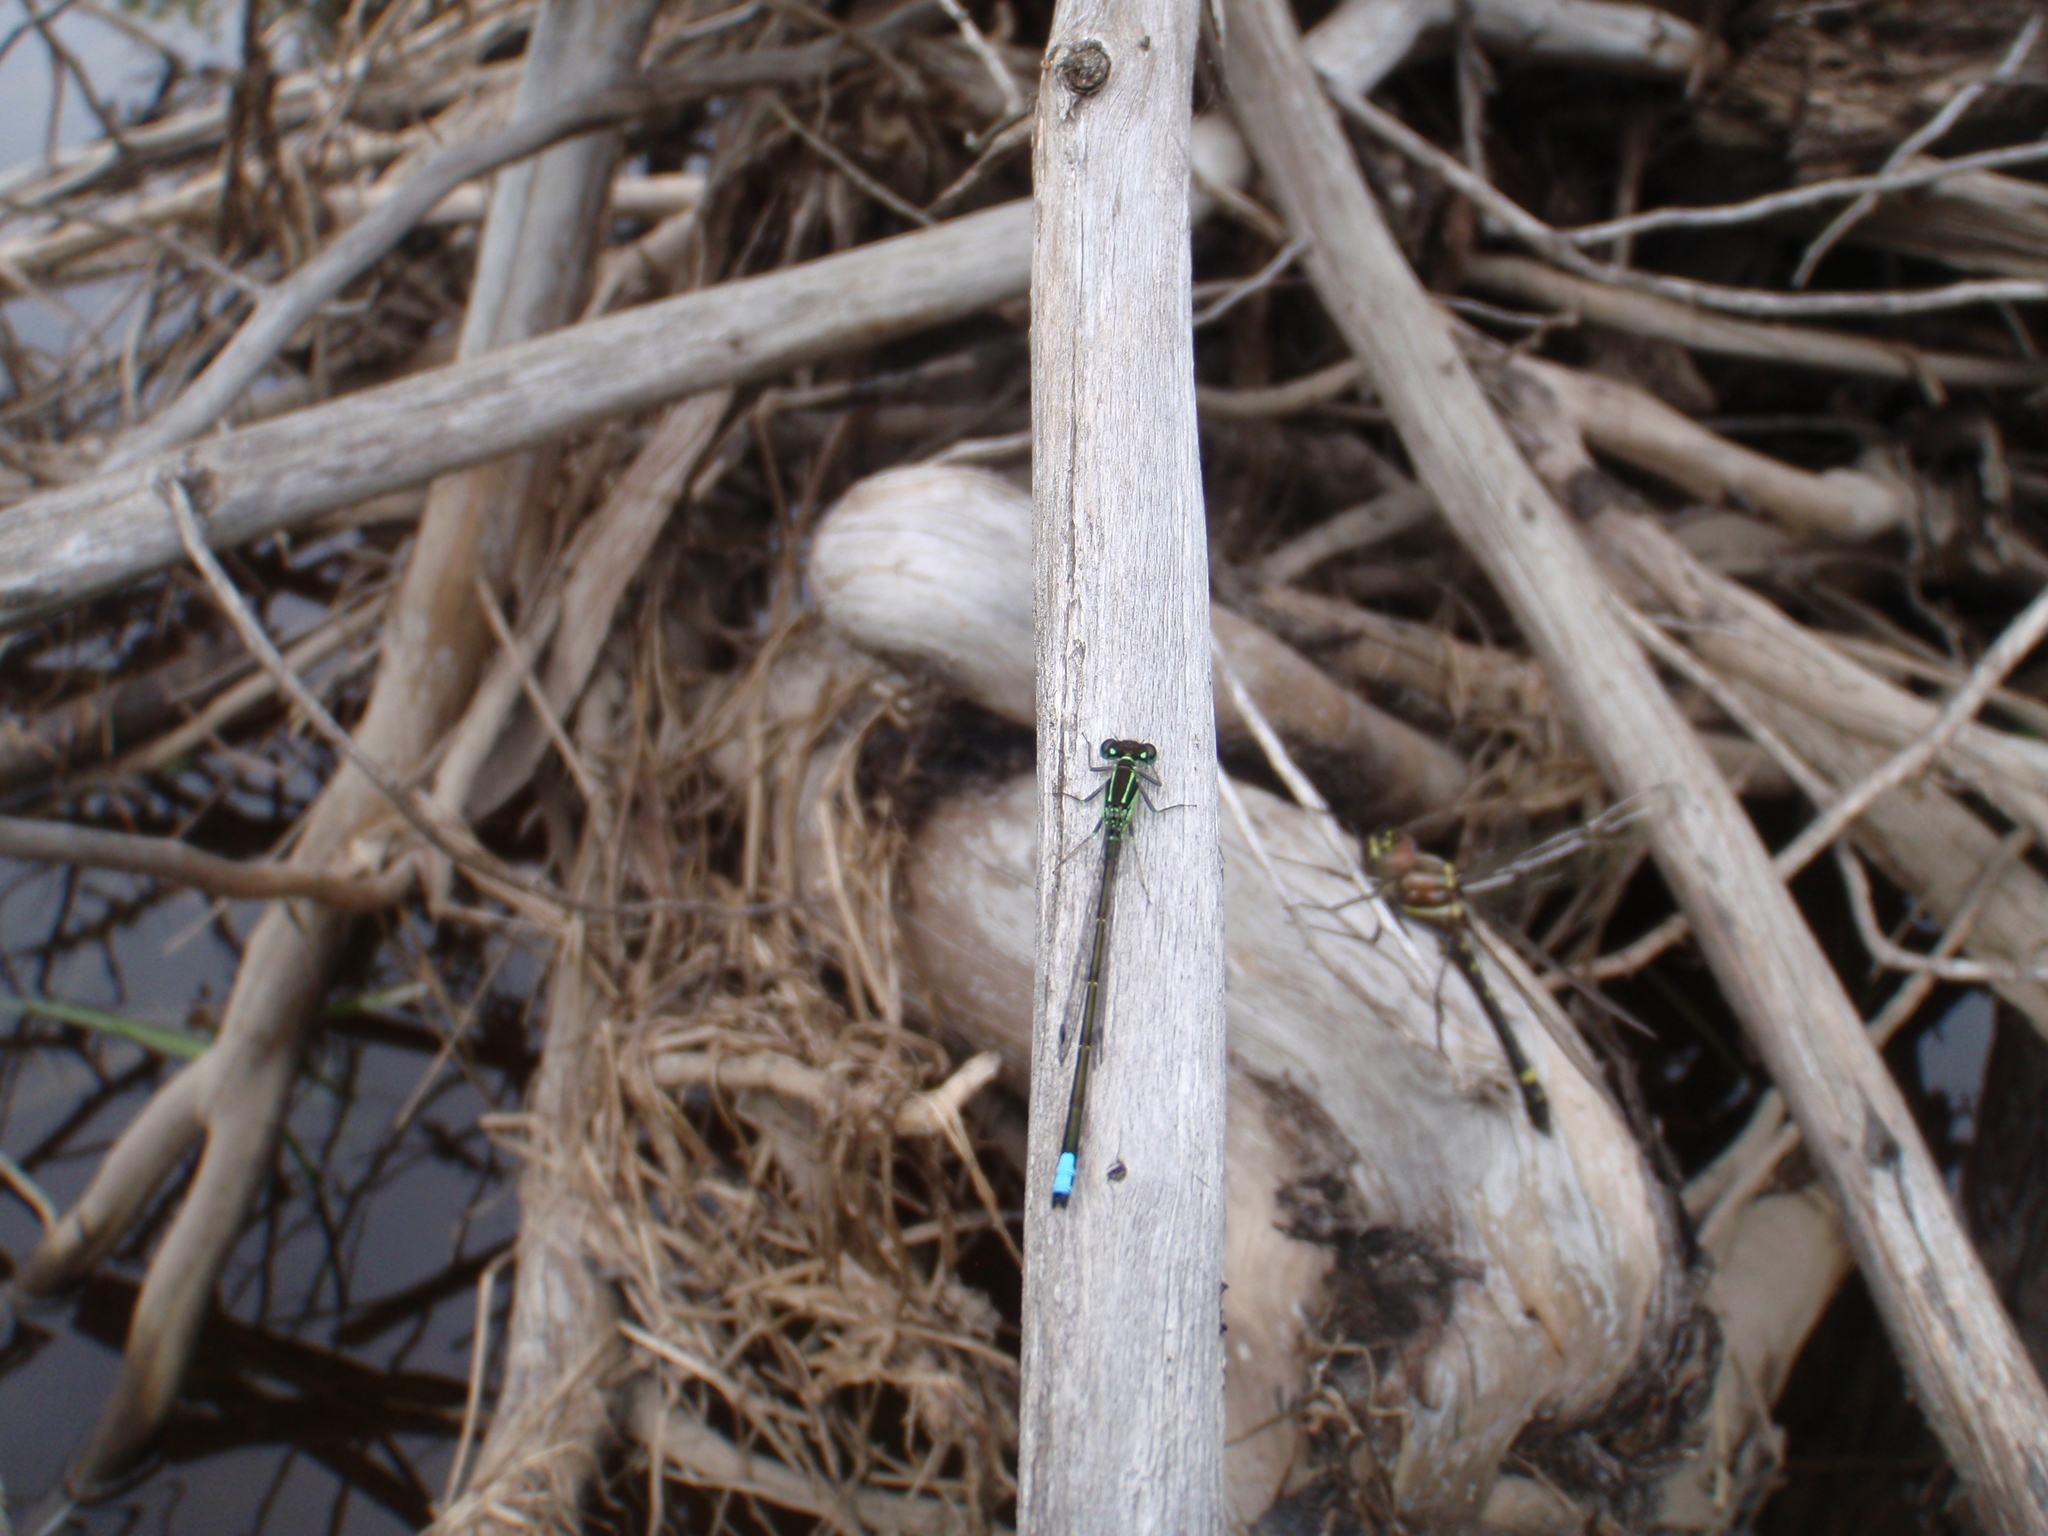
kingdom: Animalia
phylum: Arthropoda
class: Insecta
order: Odonata
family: Coenagrionidae
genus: Ischnura
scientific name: Ischnura verticalis
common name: Eastern forktail
